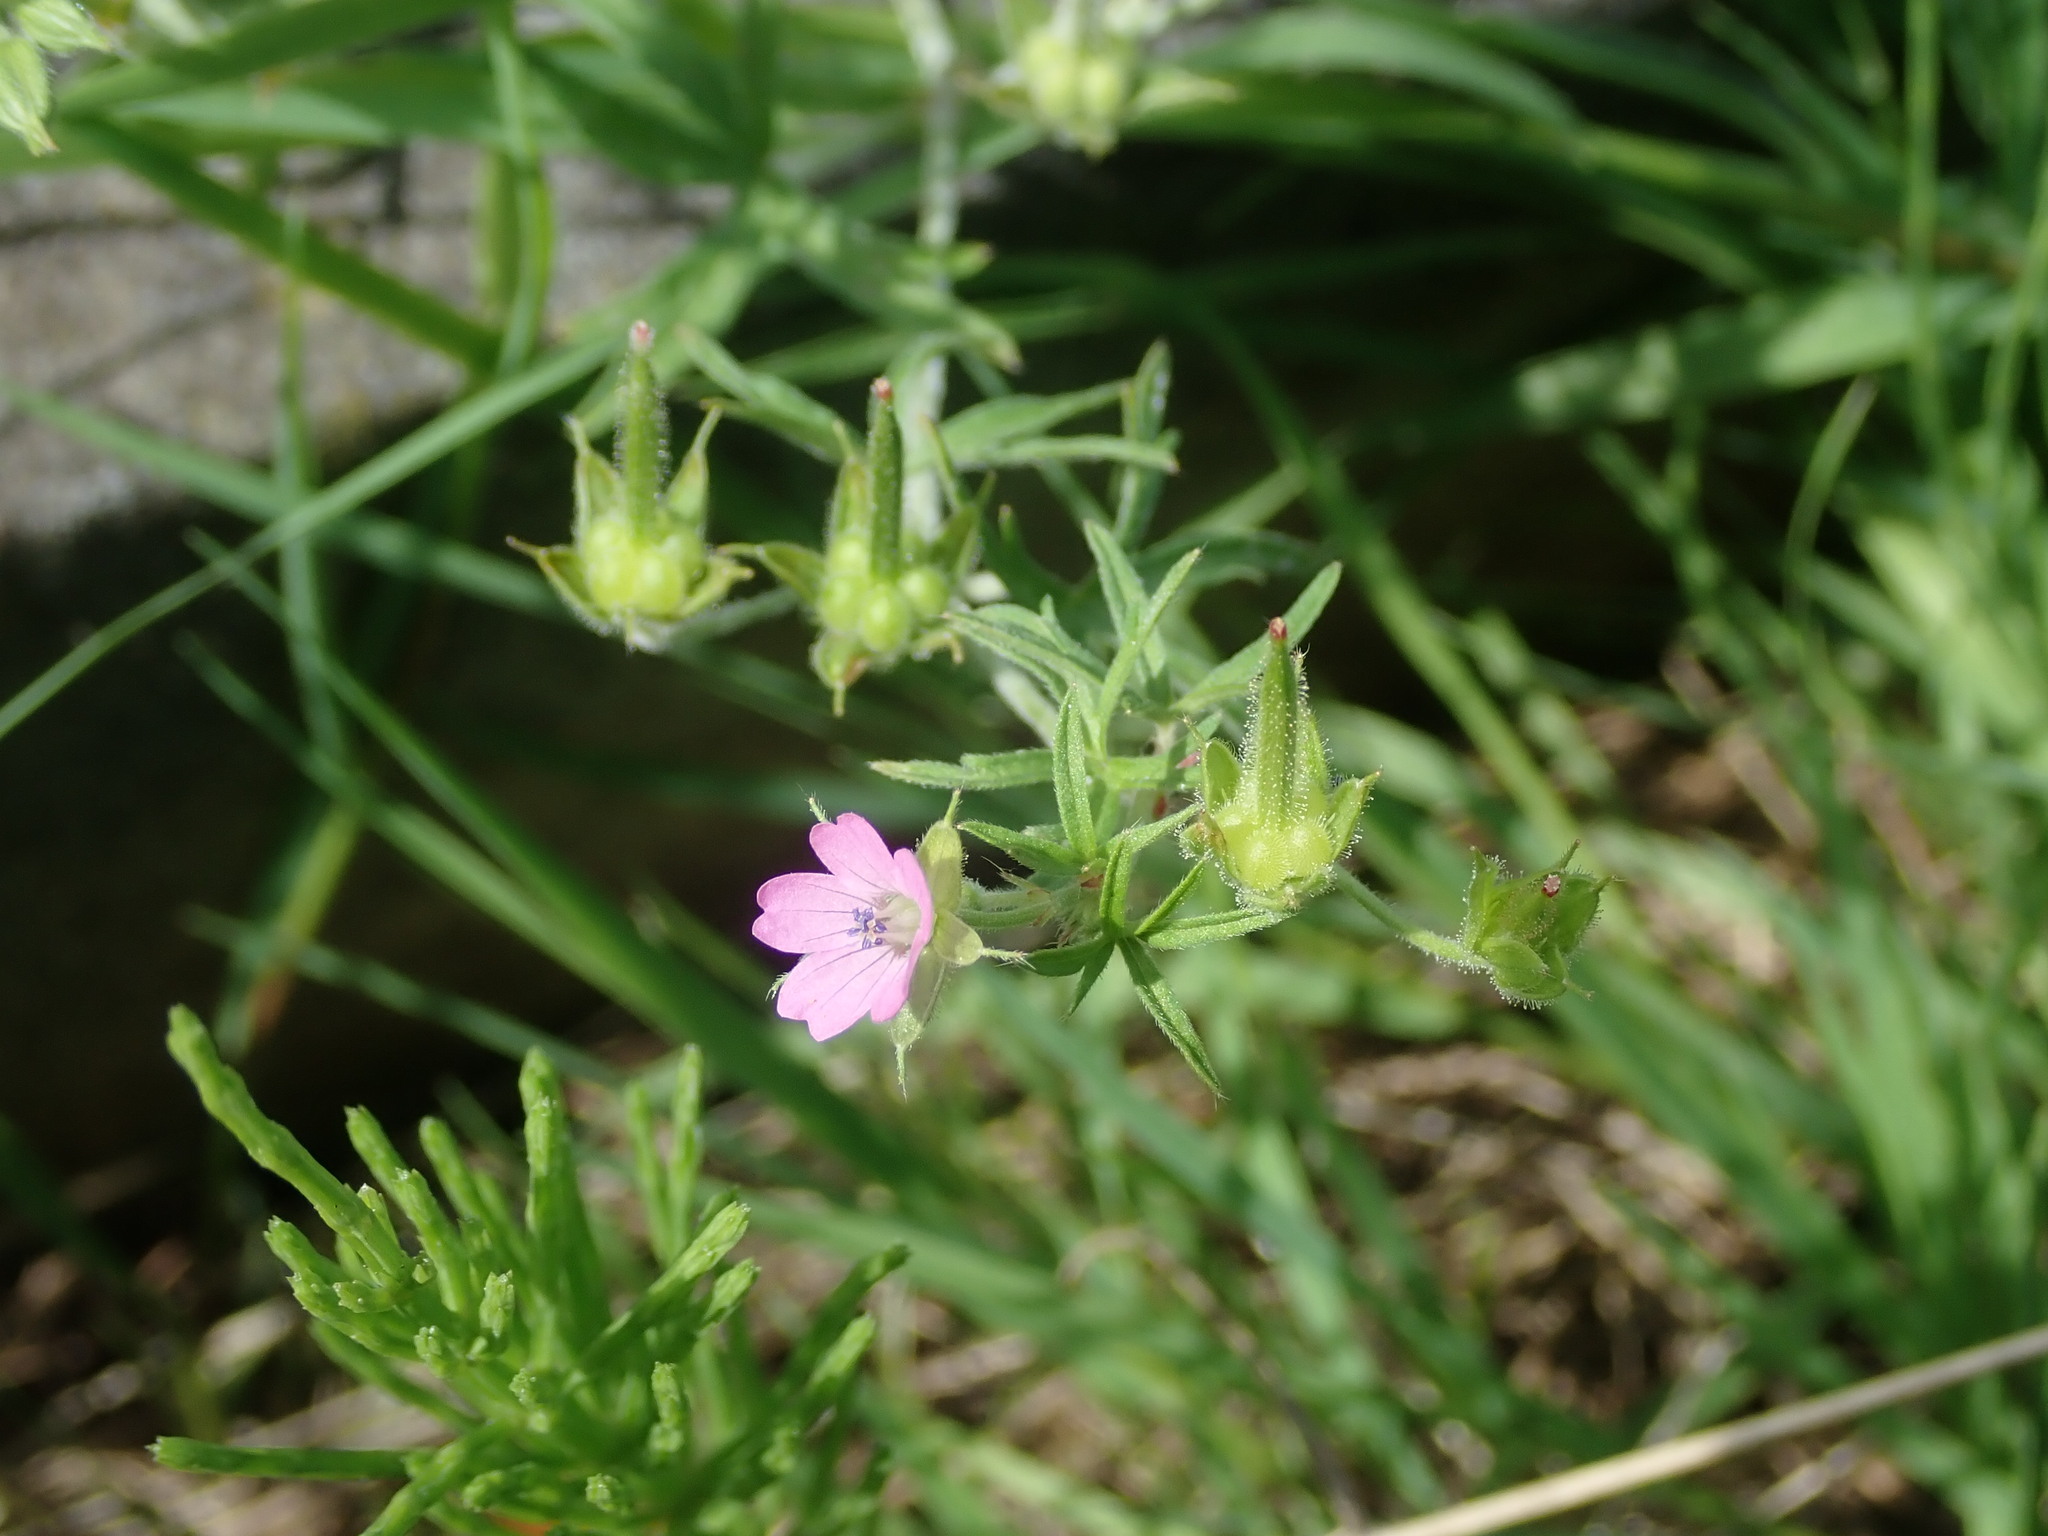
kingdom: Plantae
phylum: Tracheophyta
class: Magnoliopsida
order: Geraniales
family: Geraniaceae
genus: Geranium
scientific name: Geranium dissectum
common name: Cut-leaved crane's-bill
